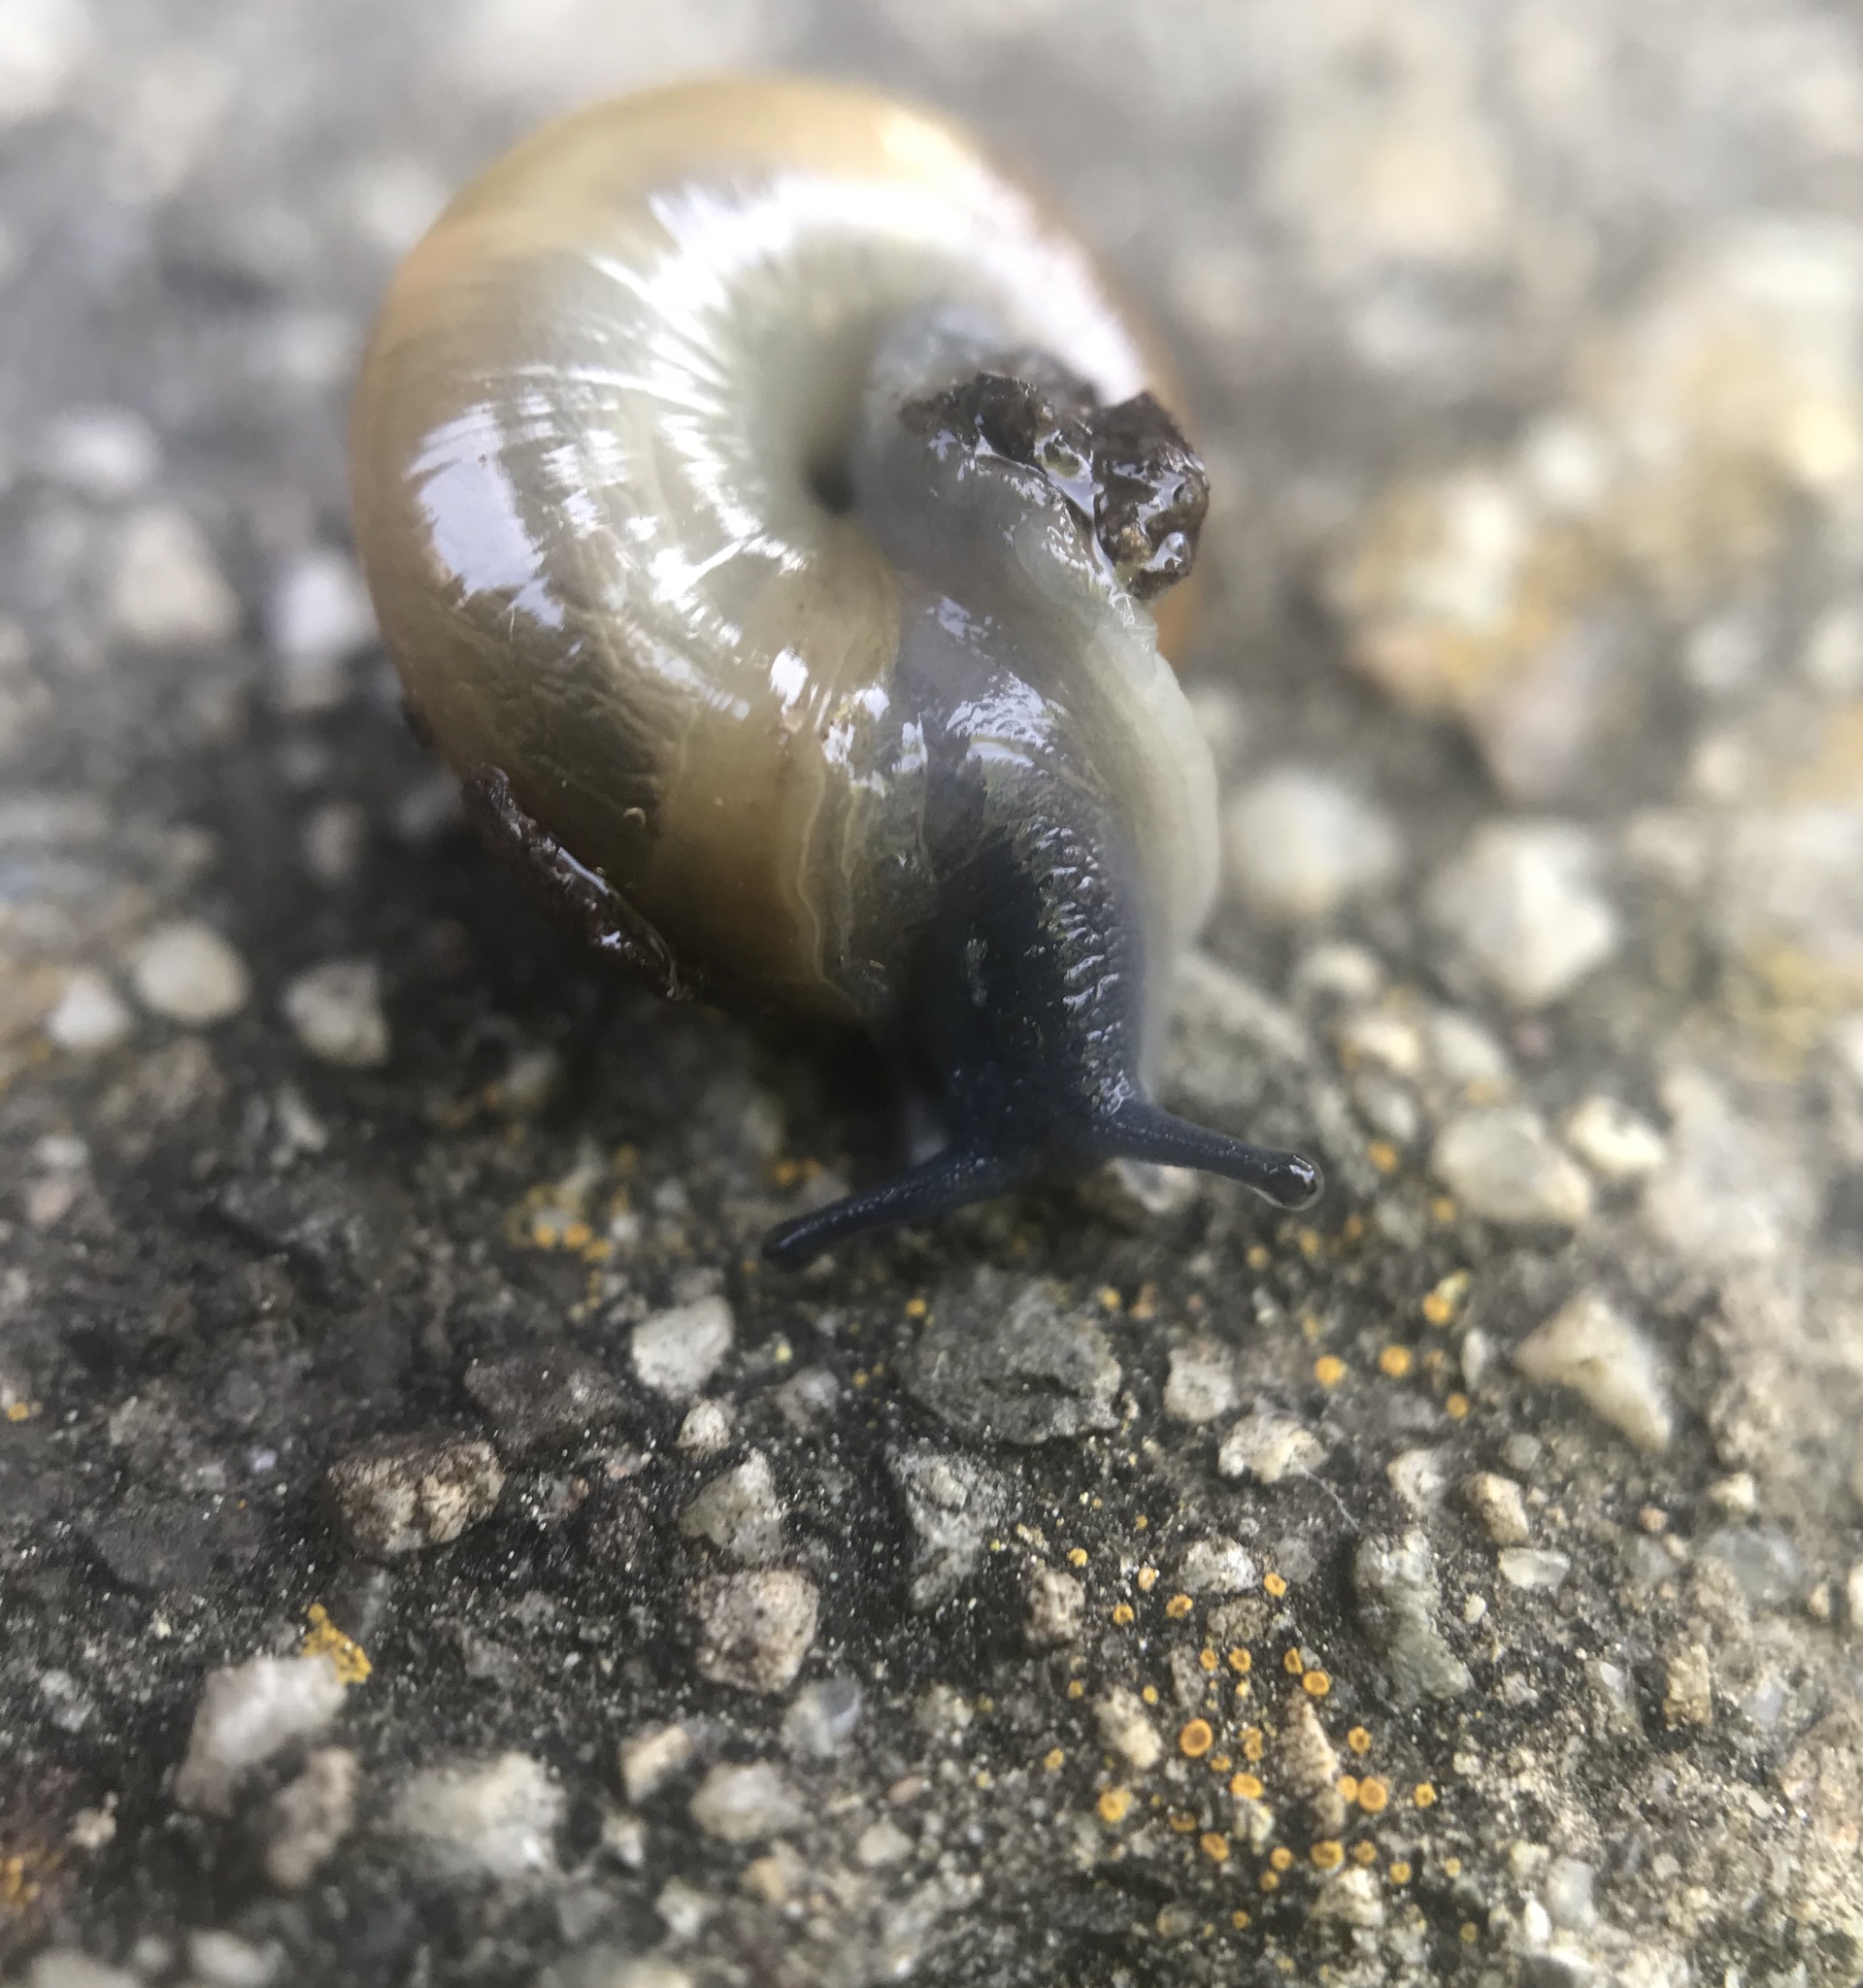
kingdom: Animalia
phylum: Mollusca
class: Gastropoda
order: Stylommatophora
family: Oxychilidae
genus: Oxychilus
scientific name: Oxychilus
